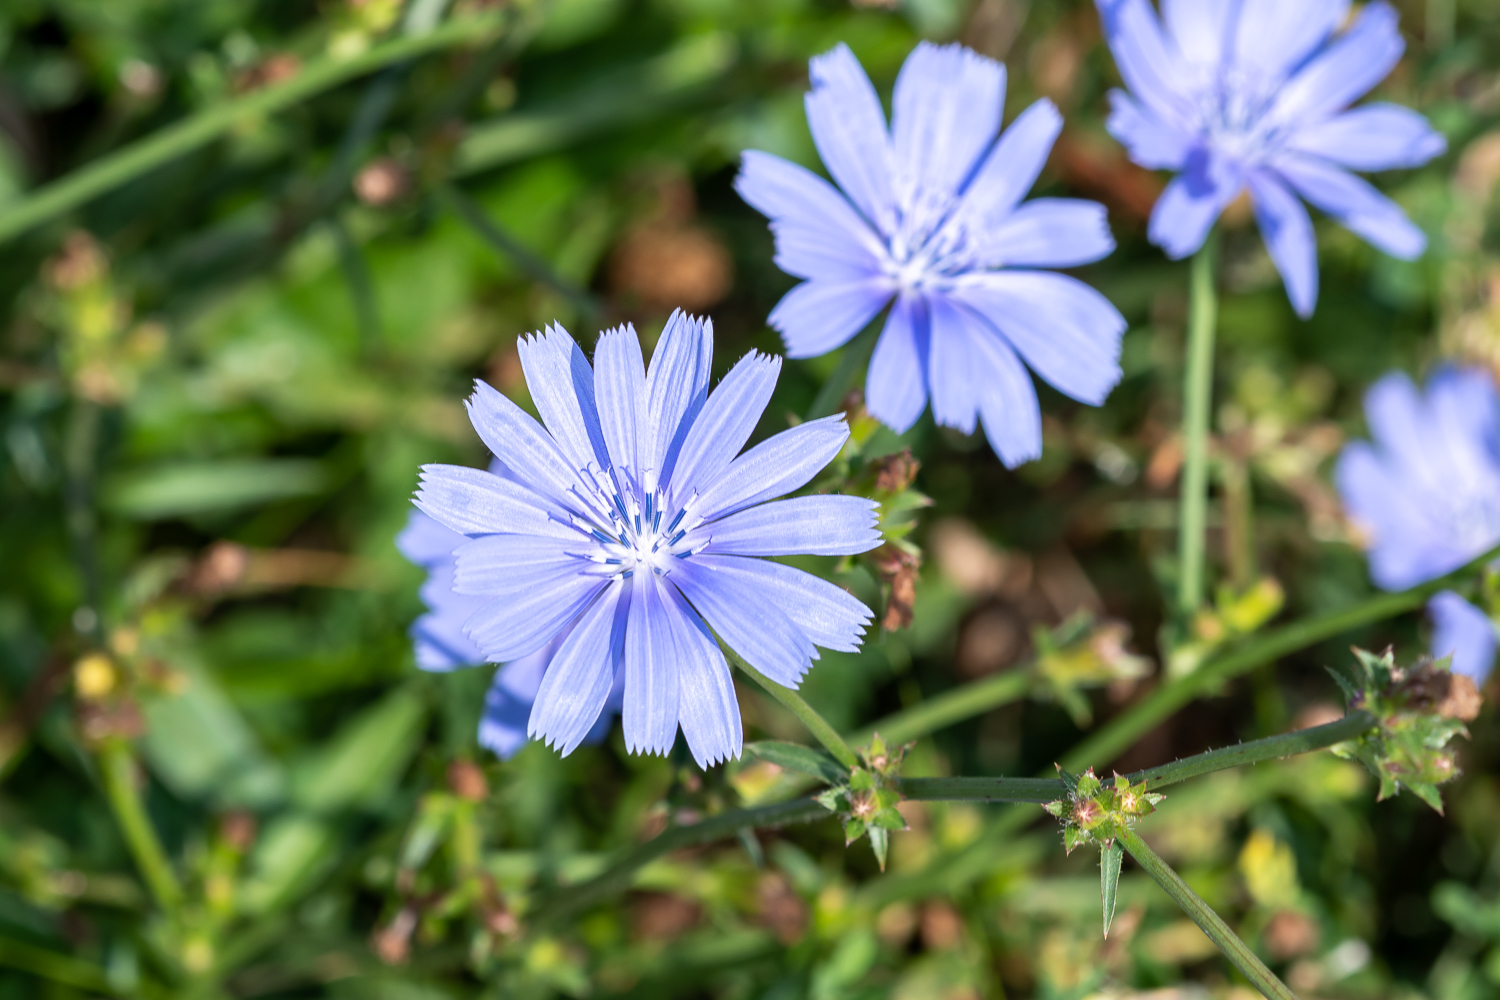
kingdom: Plantae
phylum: Tracheophyta
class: Magnoliopsida
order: Asterales
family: Asteraceae
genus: Cichorium
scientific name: Cichorium intybus
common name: Chicory
